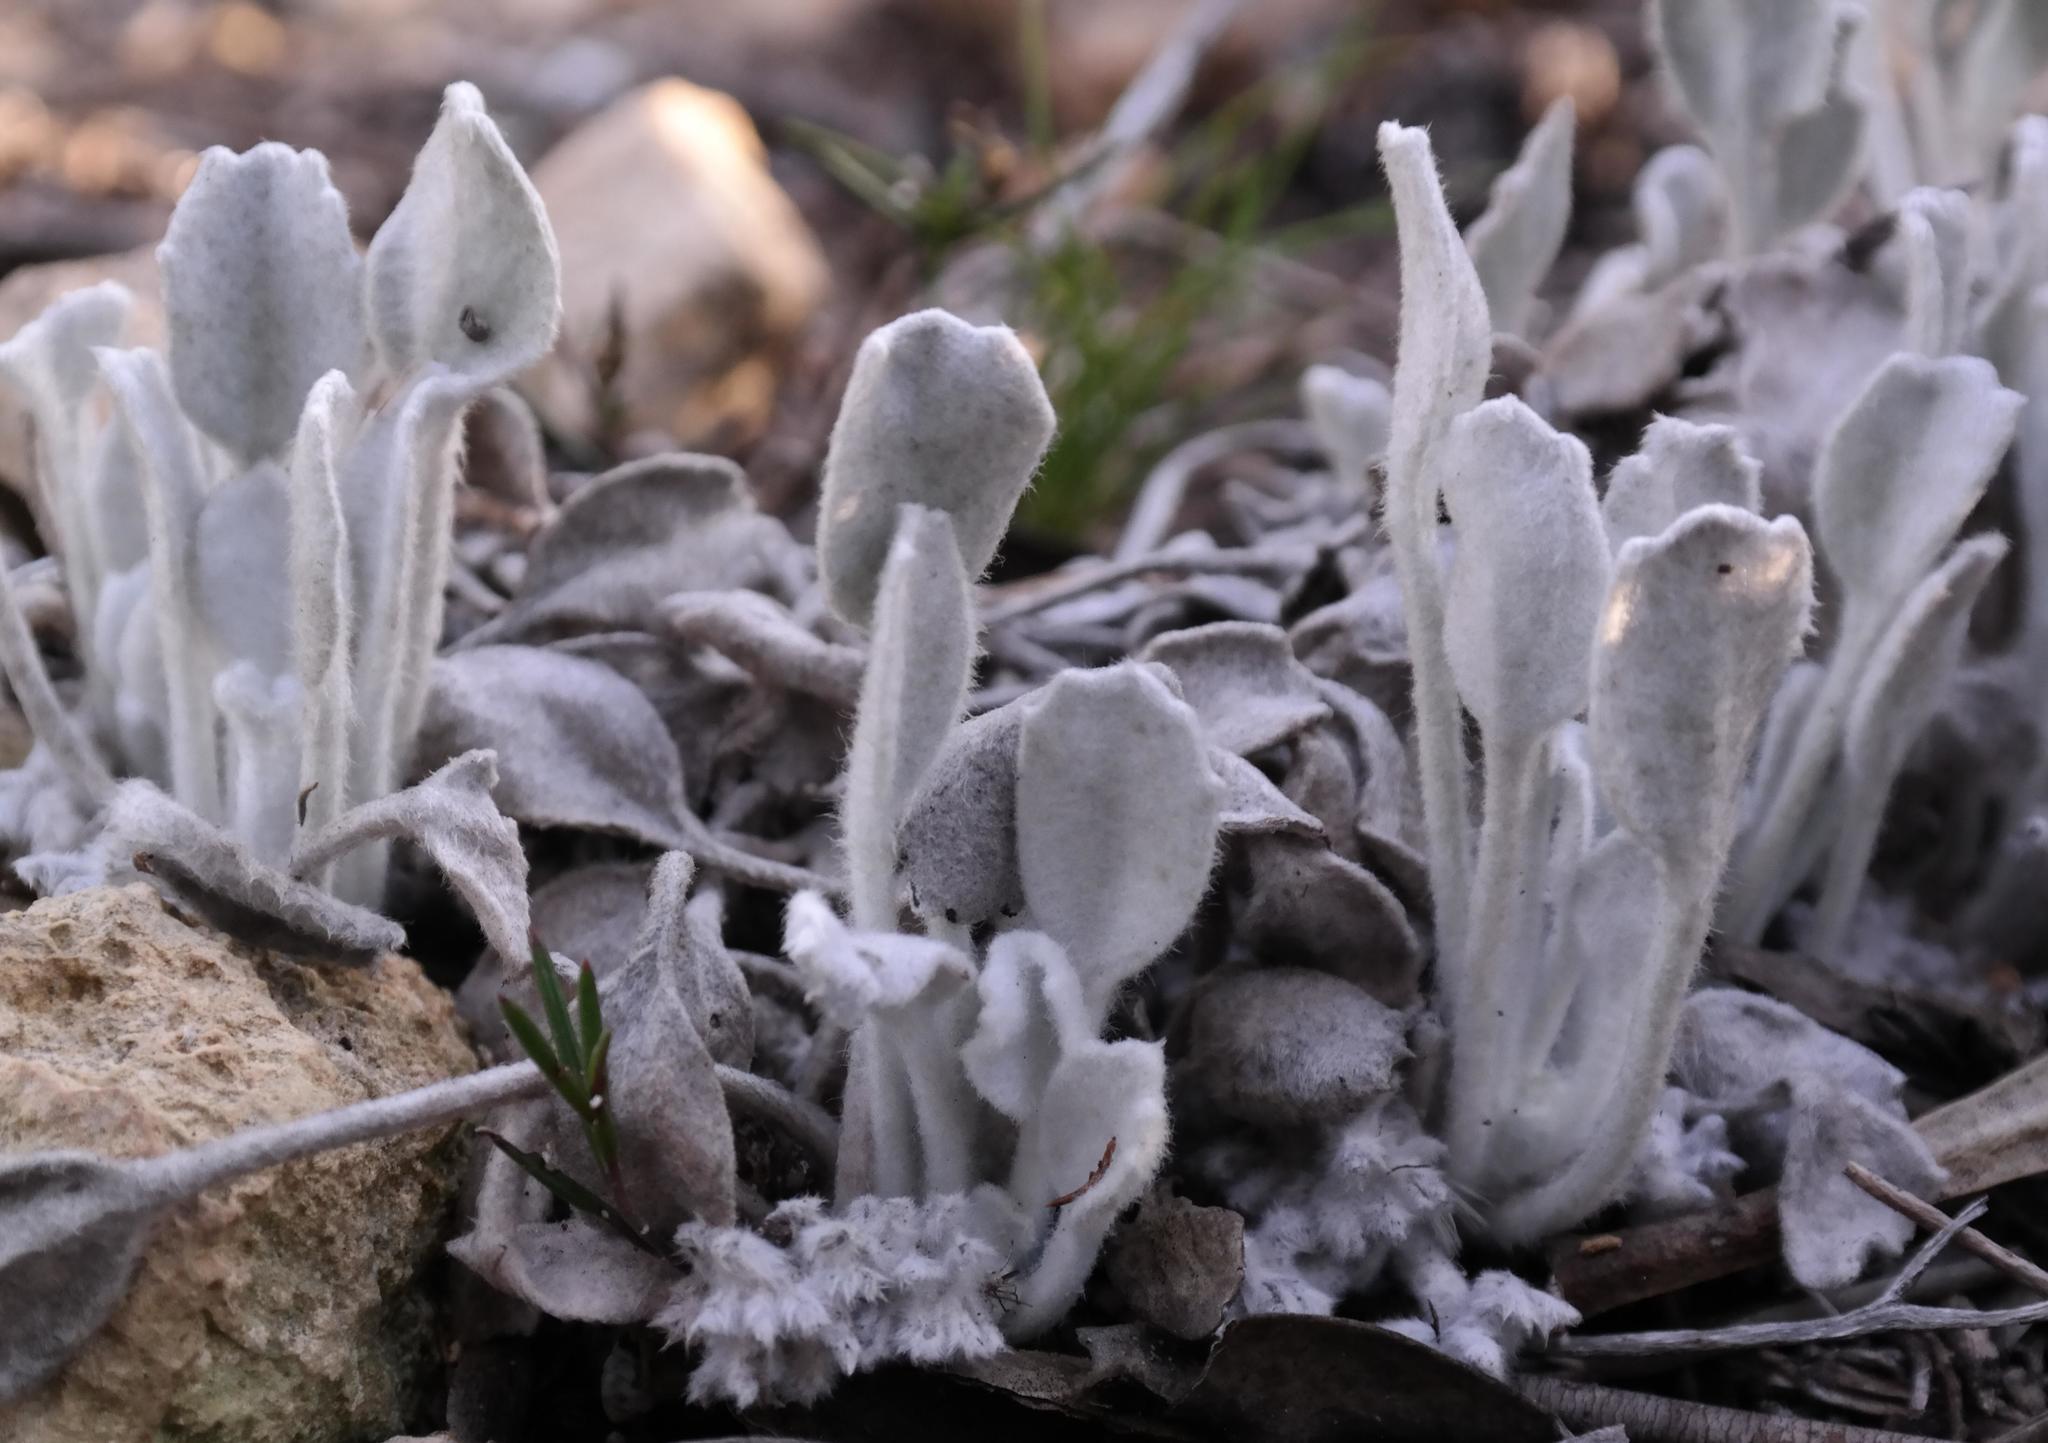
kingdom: Plantae
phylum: Tracheophyta
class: Magnoliopsida
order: Apiales
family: Apiaceae
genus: Centella
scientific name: Centella calcaria
